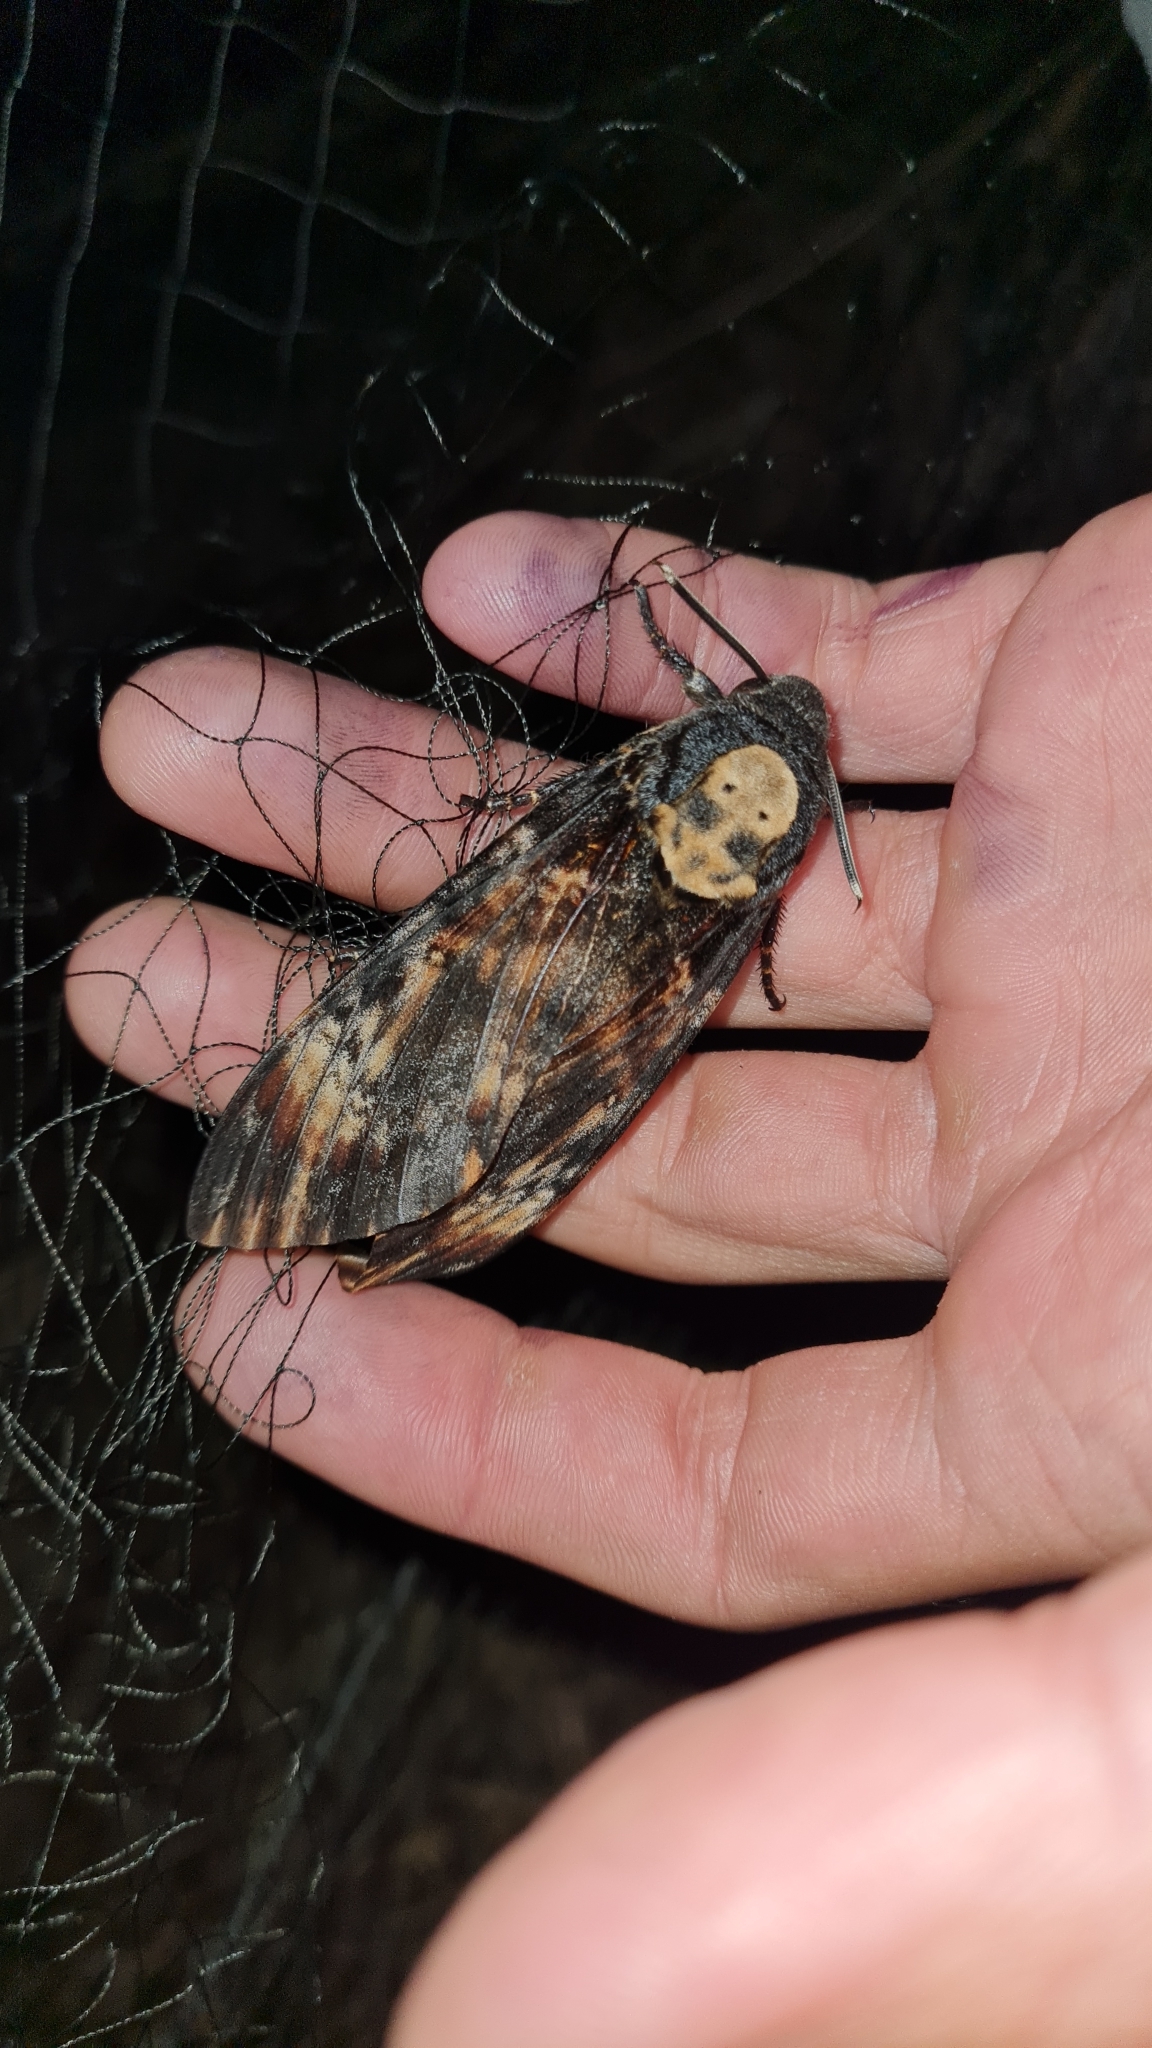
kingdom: Animalia
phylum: Arthropoda
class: Insecta
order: Lepidoptera
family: Sphingidae
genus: Acherontia
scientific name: Acherontia atropos
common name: Death's-head hawk moth
